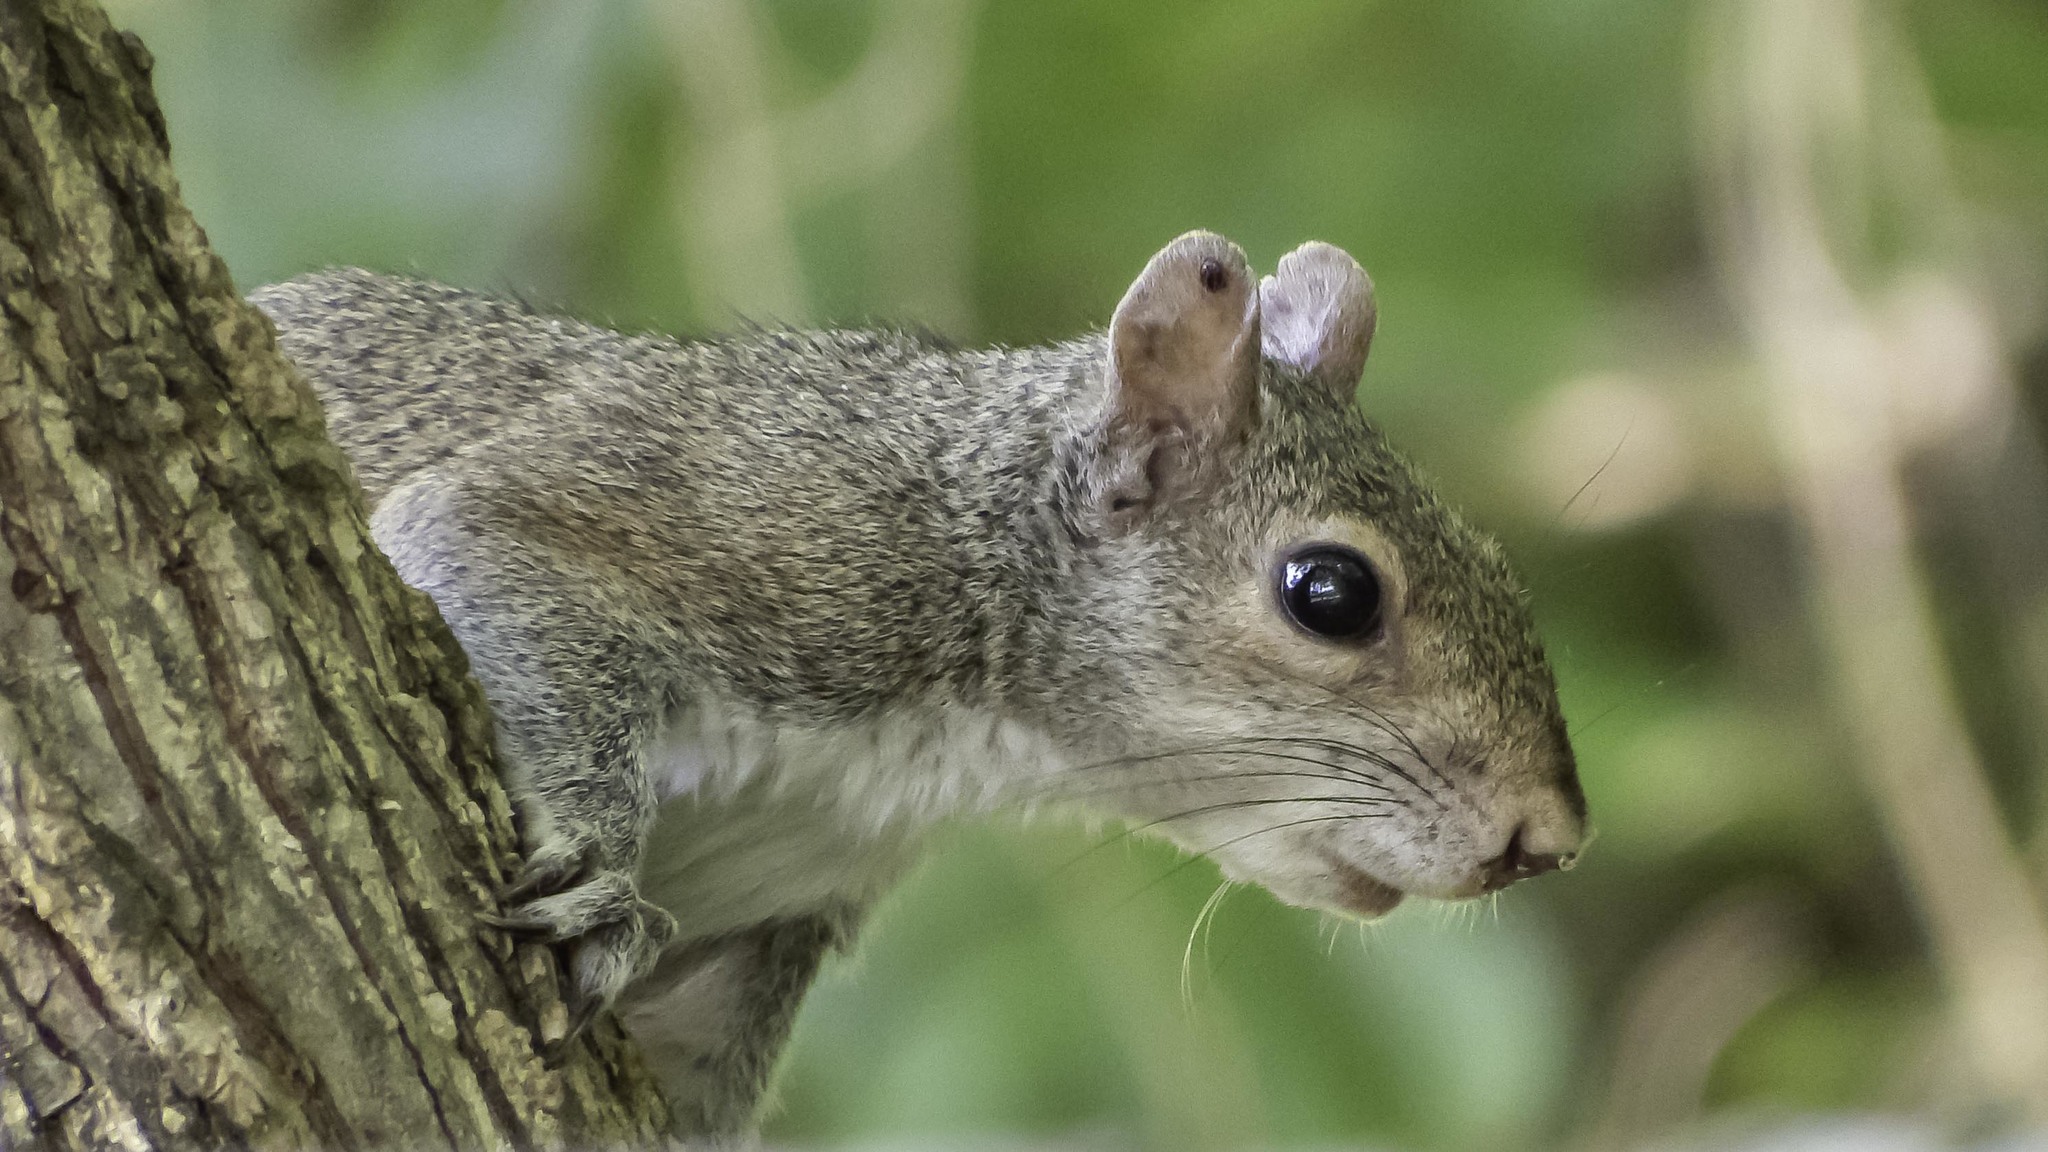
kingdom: Animalia
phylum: Chordata
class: Mammalia
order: Rodentia
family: Sciuridae
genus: Sciurus
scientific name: Sciurus carolinensis
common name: Eastern gray squirrel
